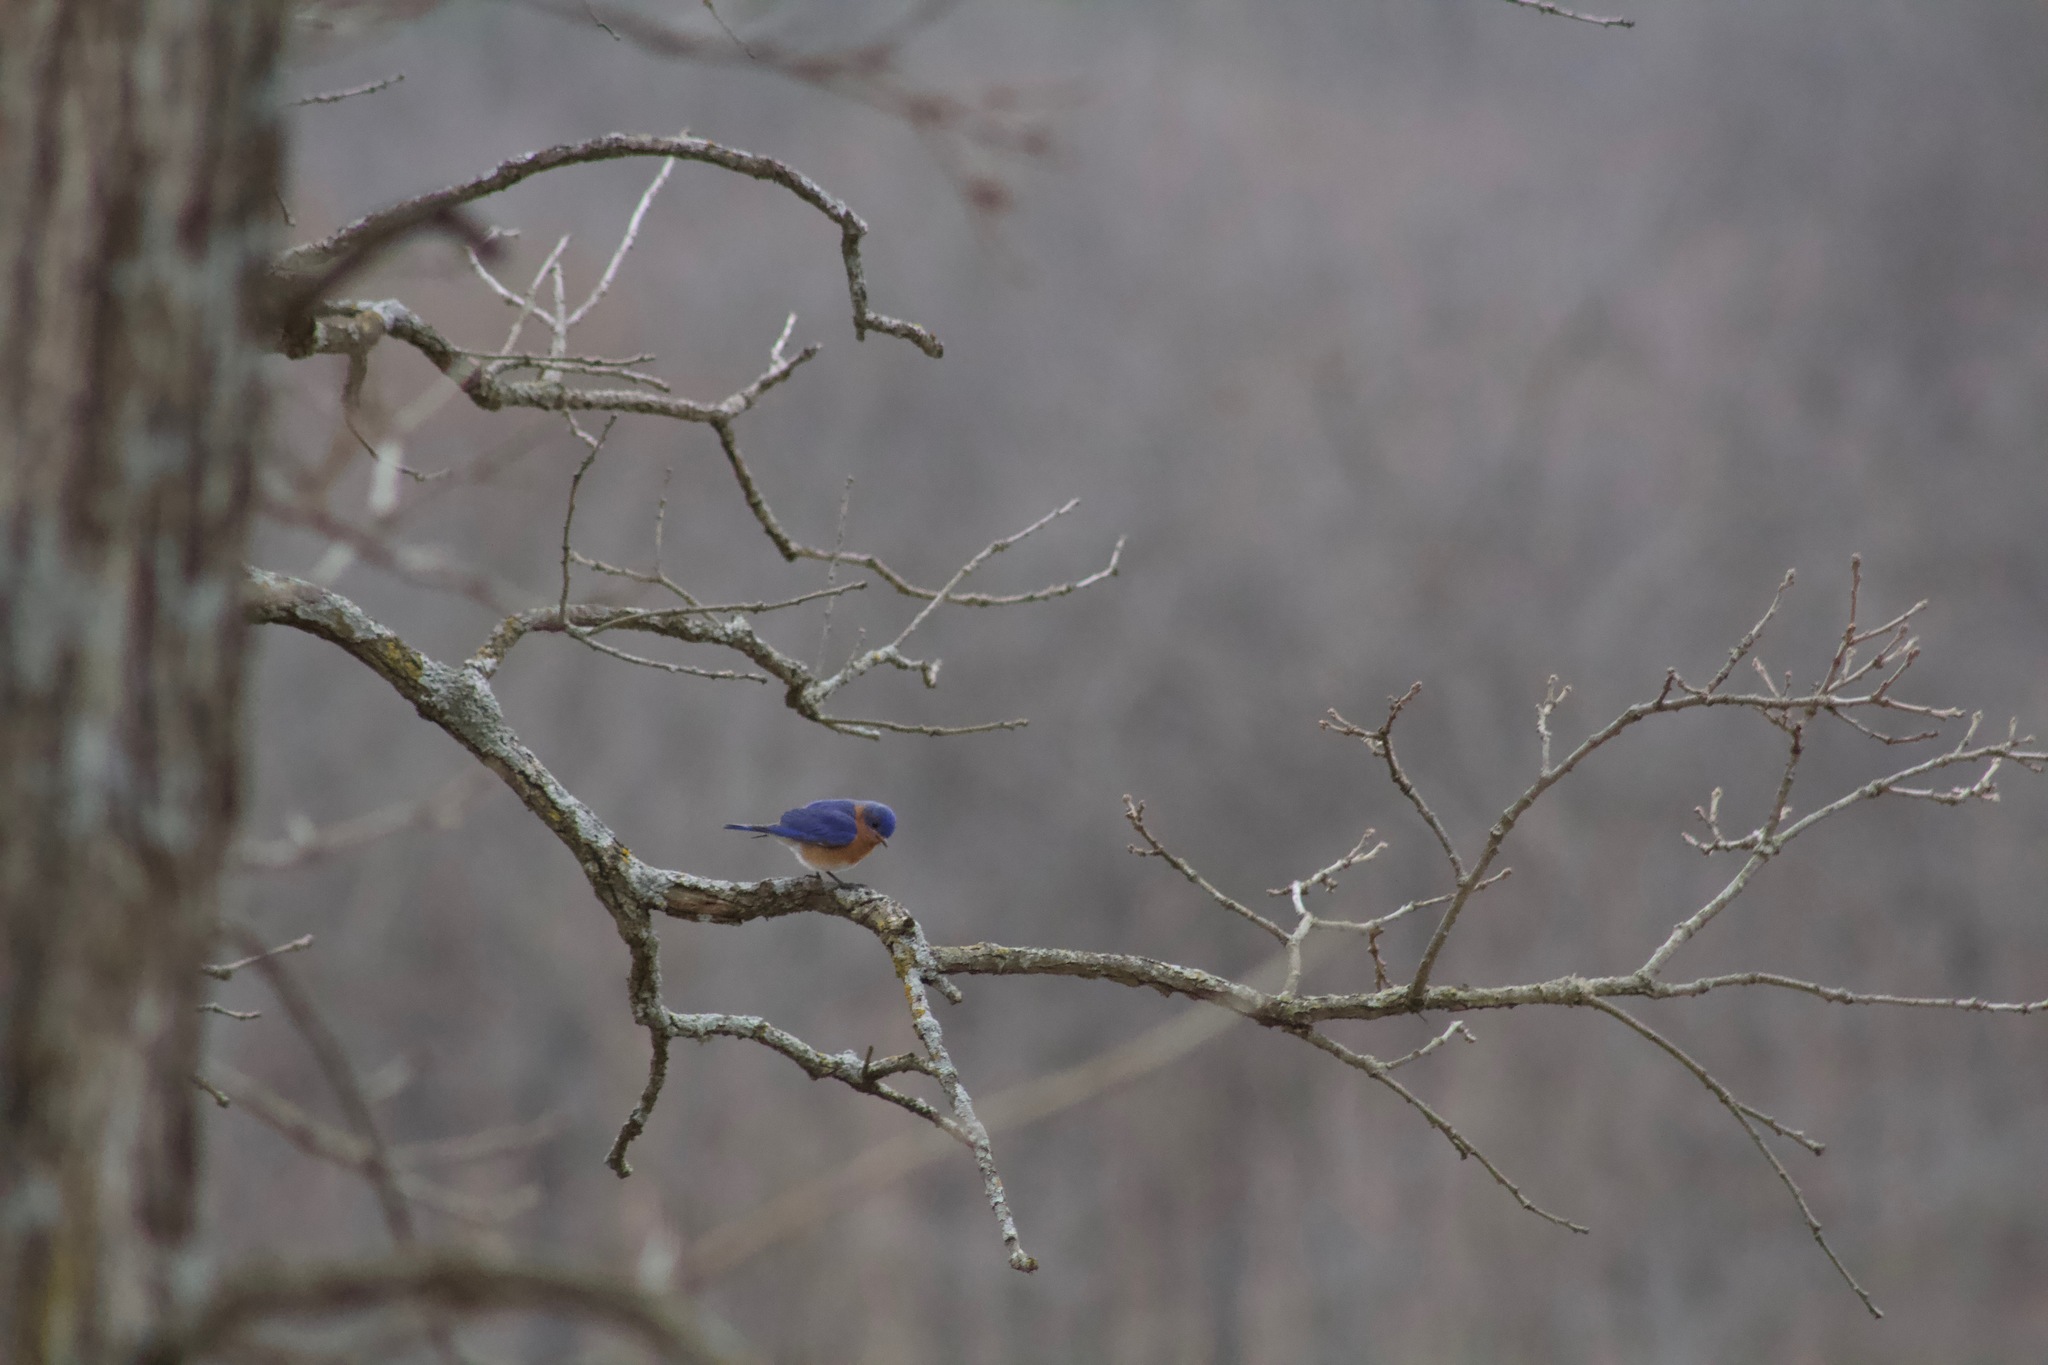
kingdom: Animalia
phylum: Chordata
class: Aves
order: Passeriformes
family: Turdidae
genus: Sialia
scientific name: Sialia sialis
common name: Eastern bluebird
